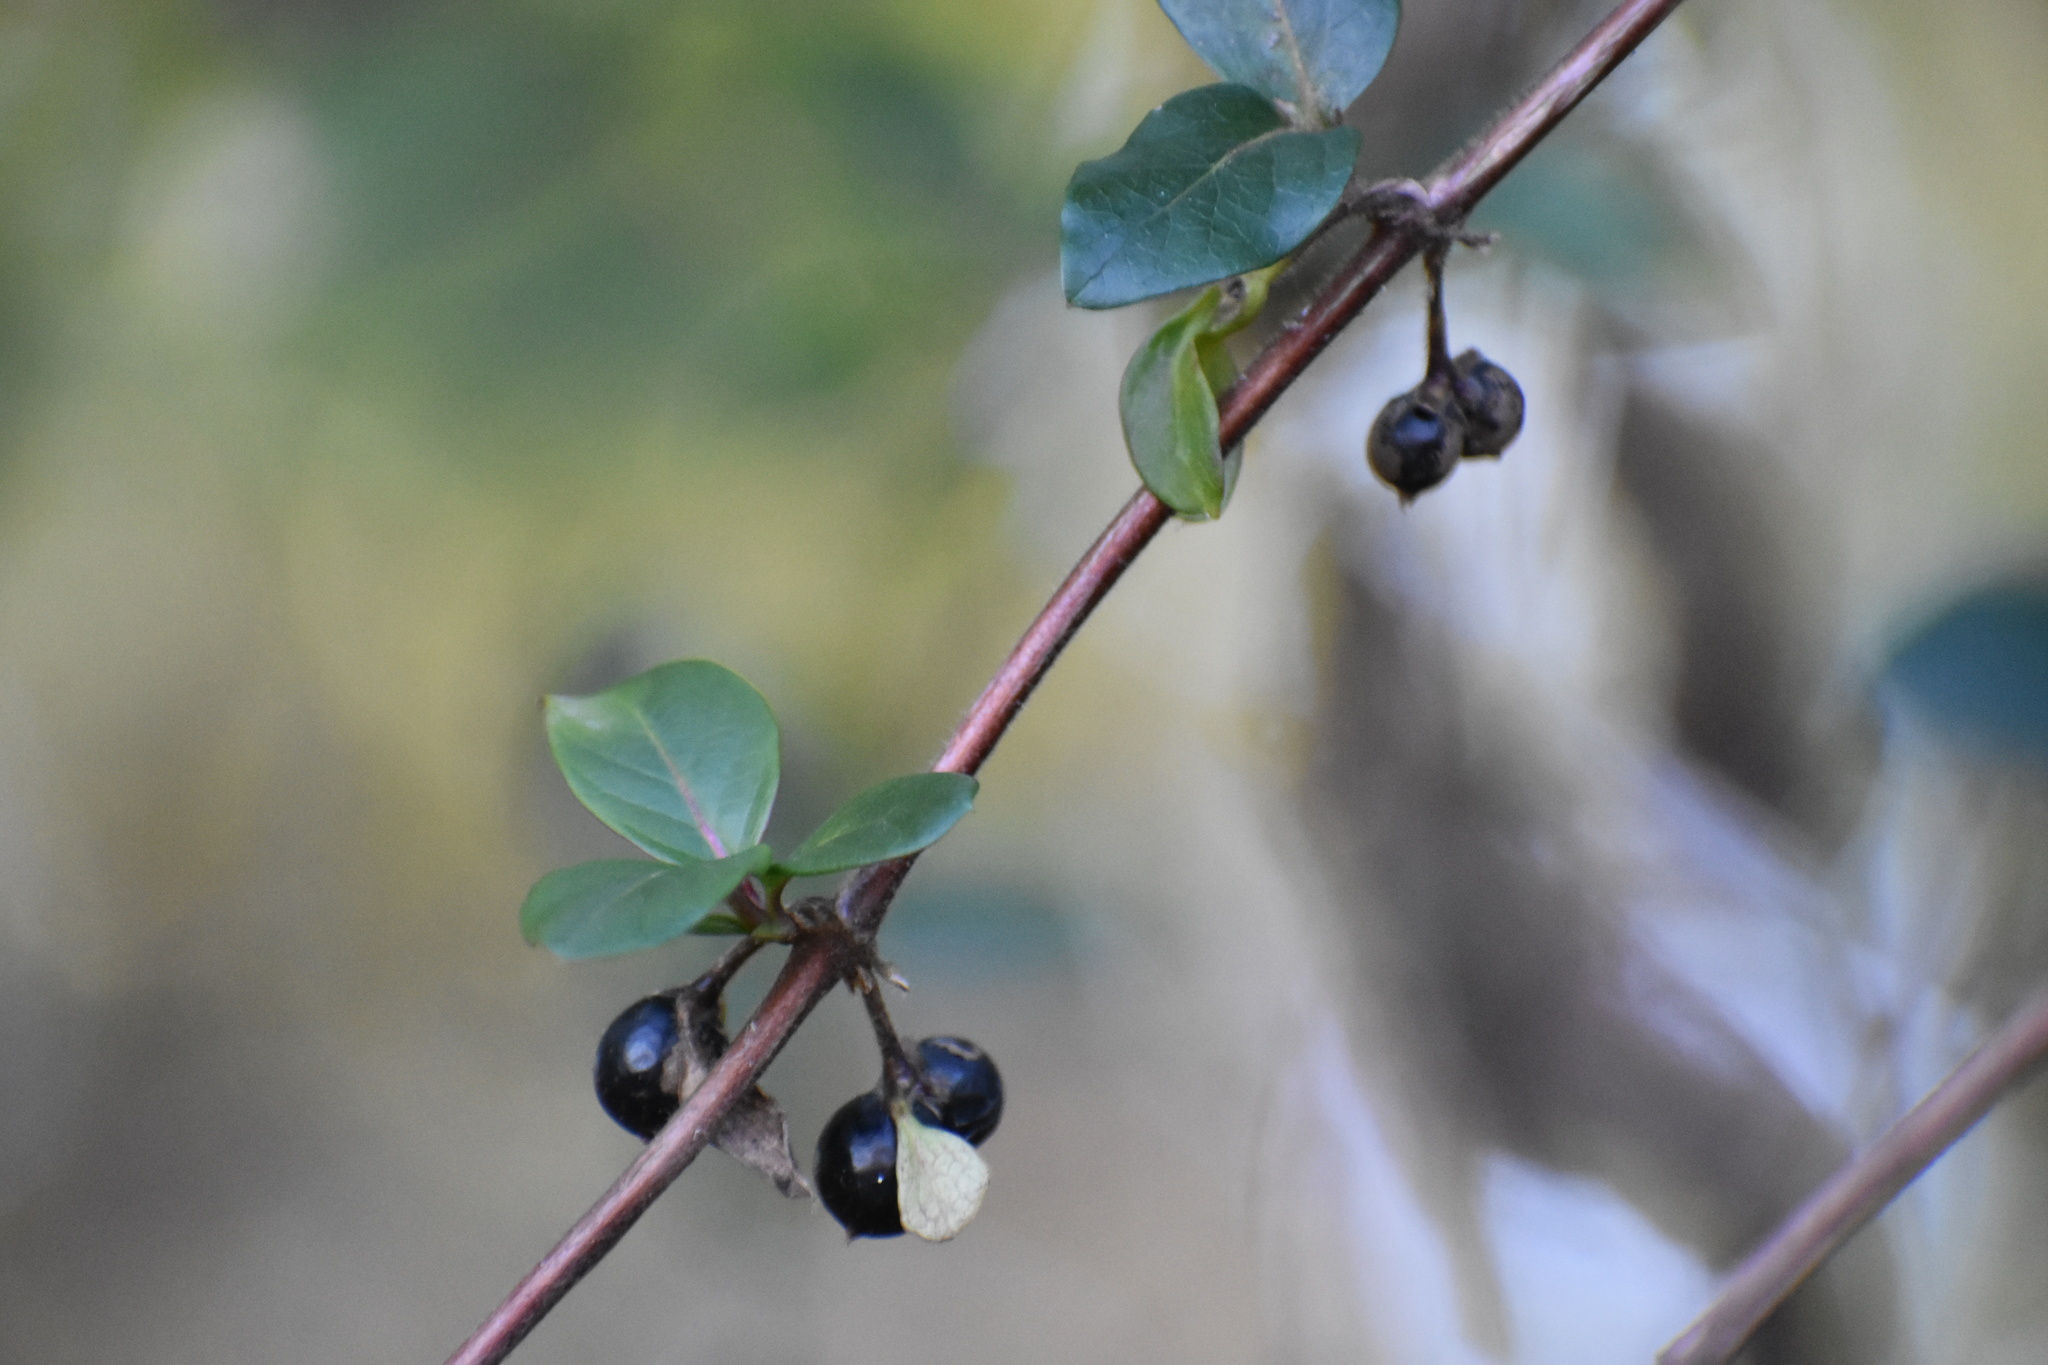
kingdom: Plantae
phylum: Tracheophyta
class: Magnoliopsida
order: Dipsacales
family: Caprifoliaceae
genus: Lonicera
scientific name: Lonicera japonica
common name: Japanese honeysuckle
